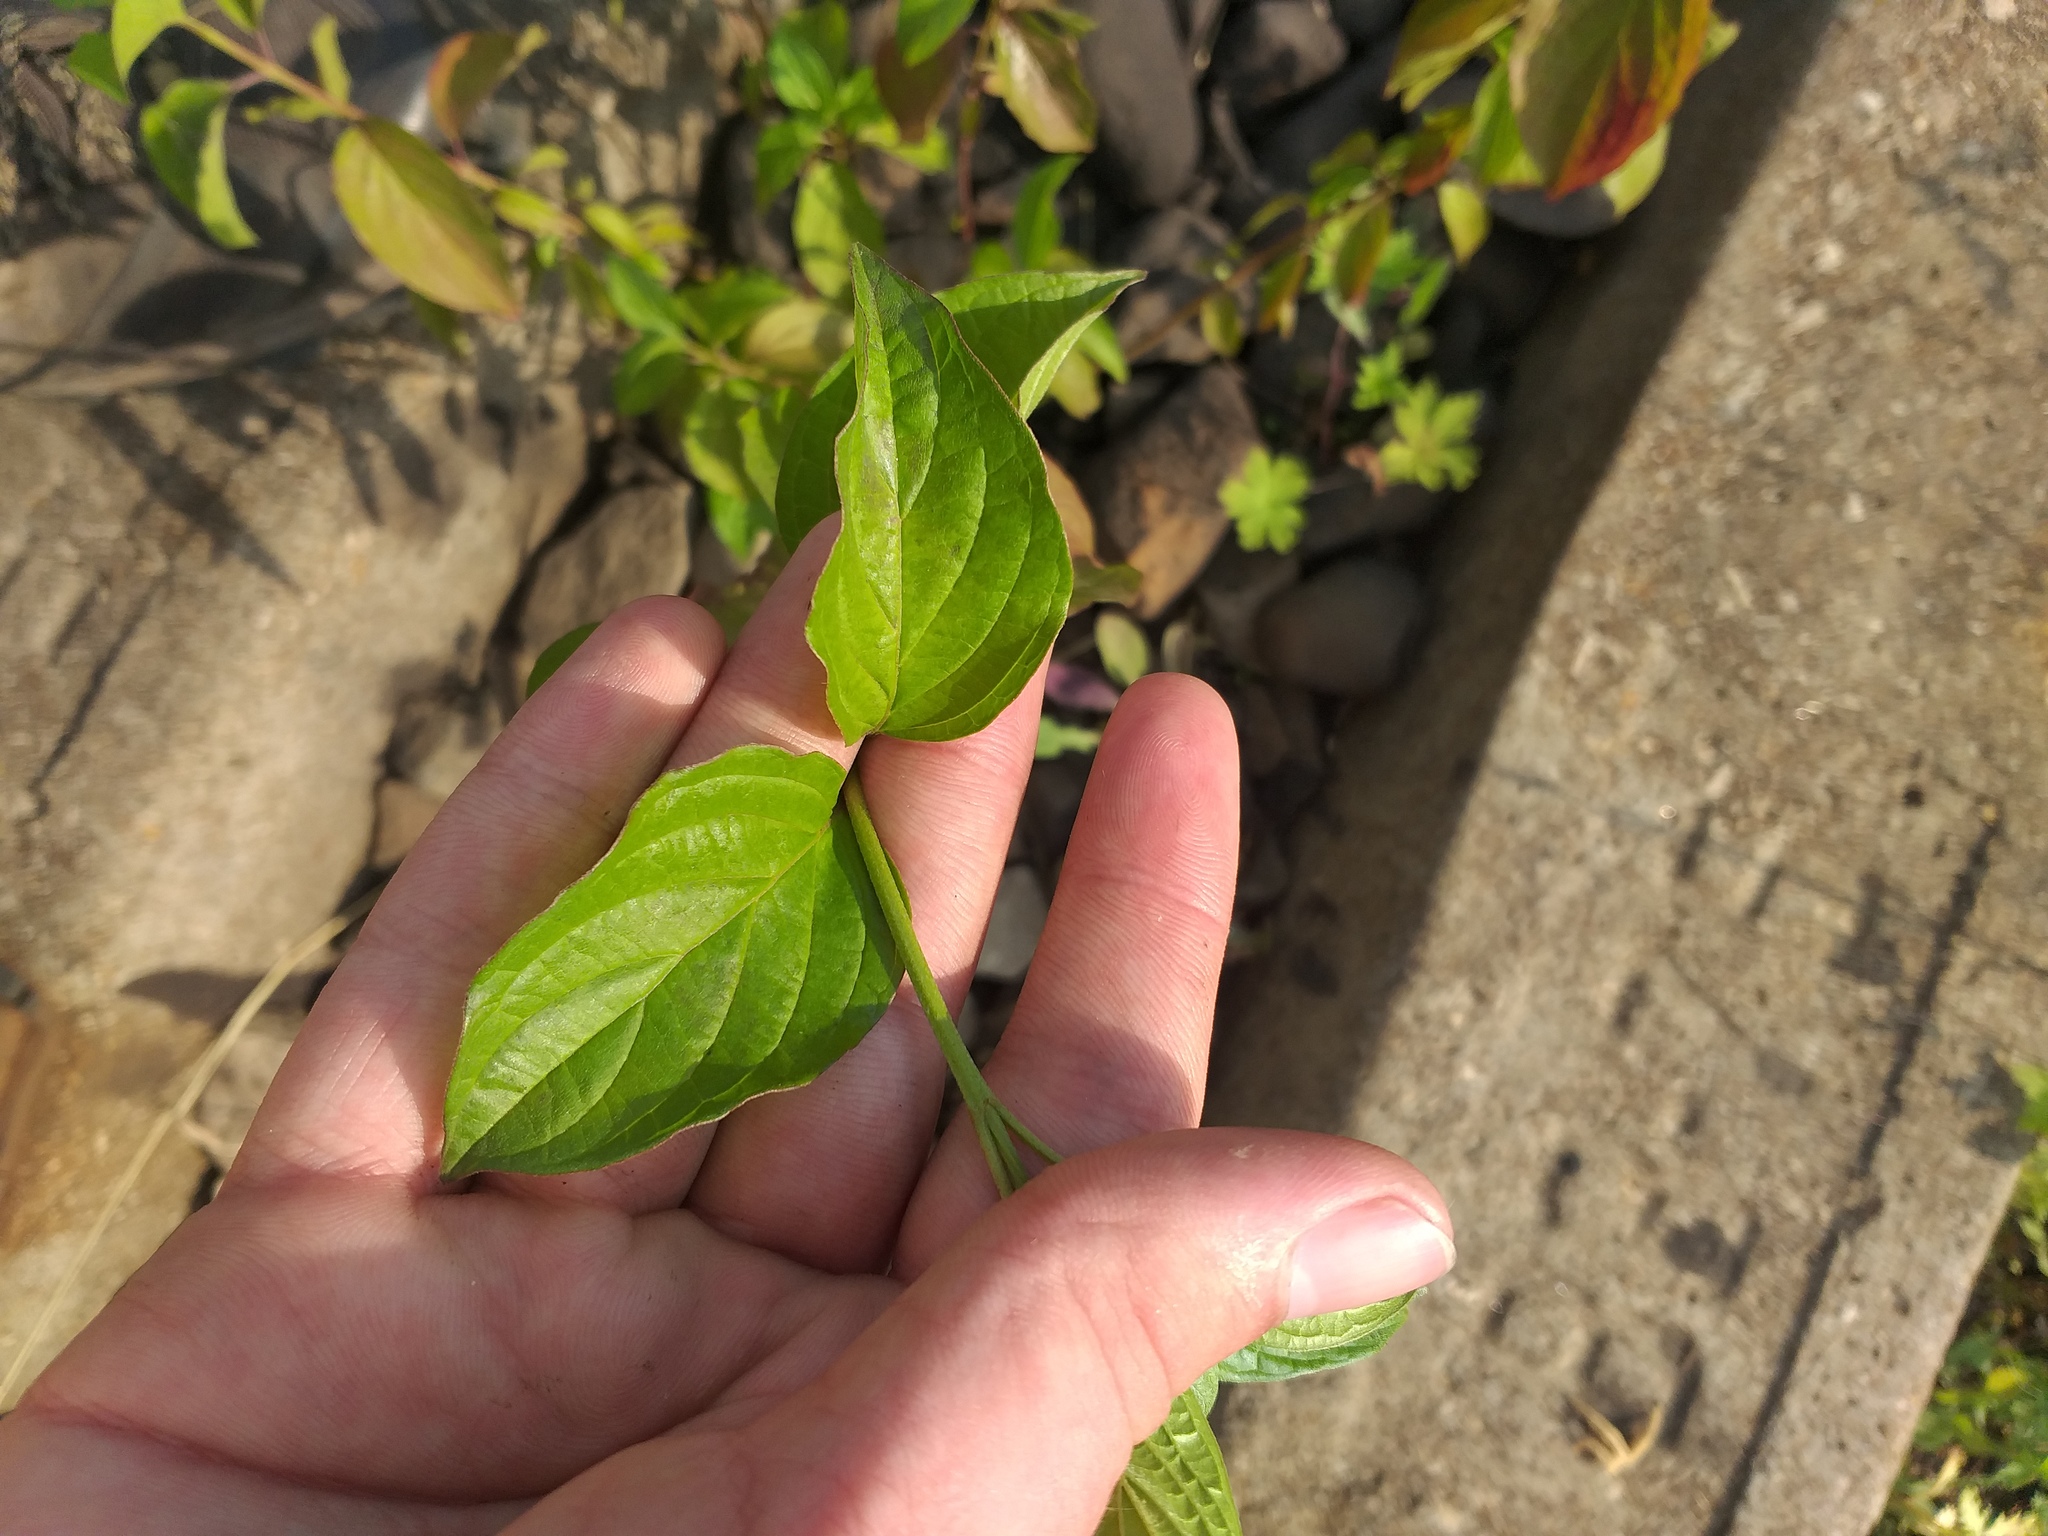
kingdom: Plantae
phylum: Tracheophyta
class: Magnoliopsida
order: Cornales
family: Cornaceae
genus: Cornus
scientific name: Cornus sanguinea
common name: Dogwood
